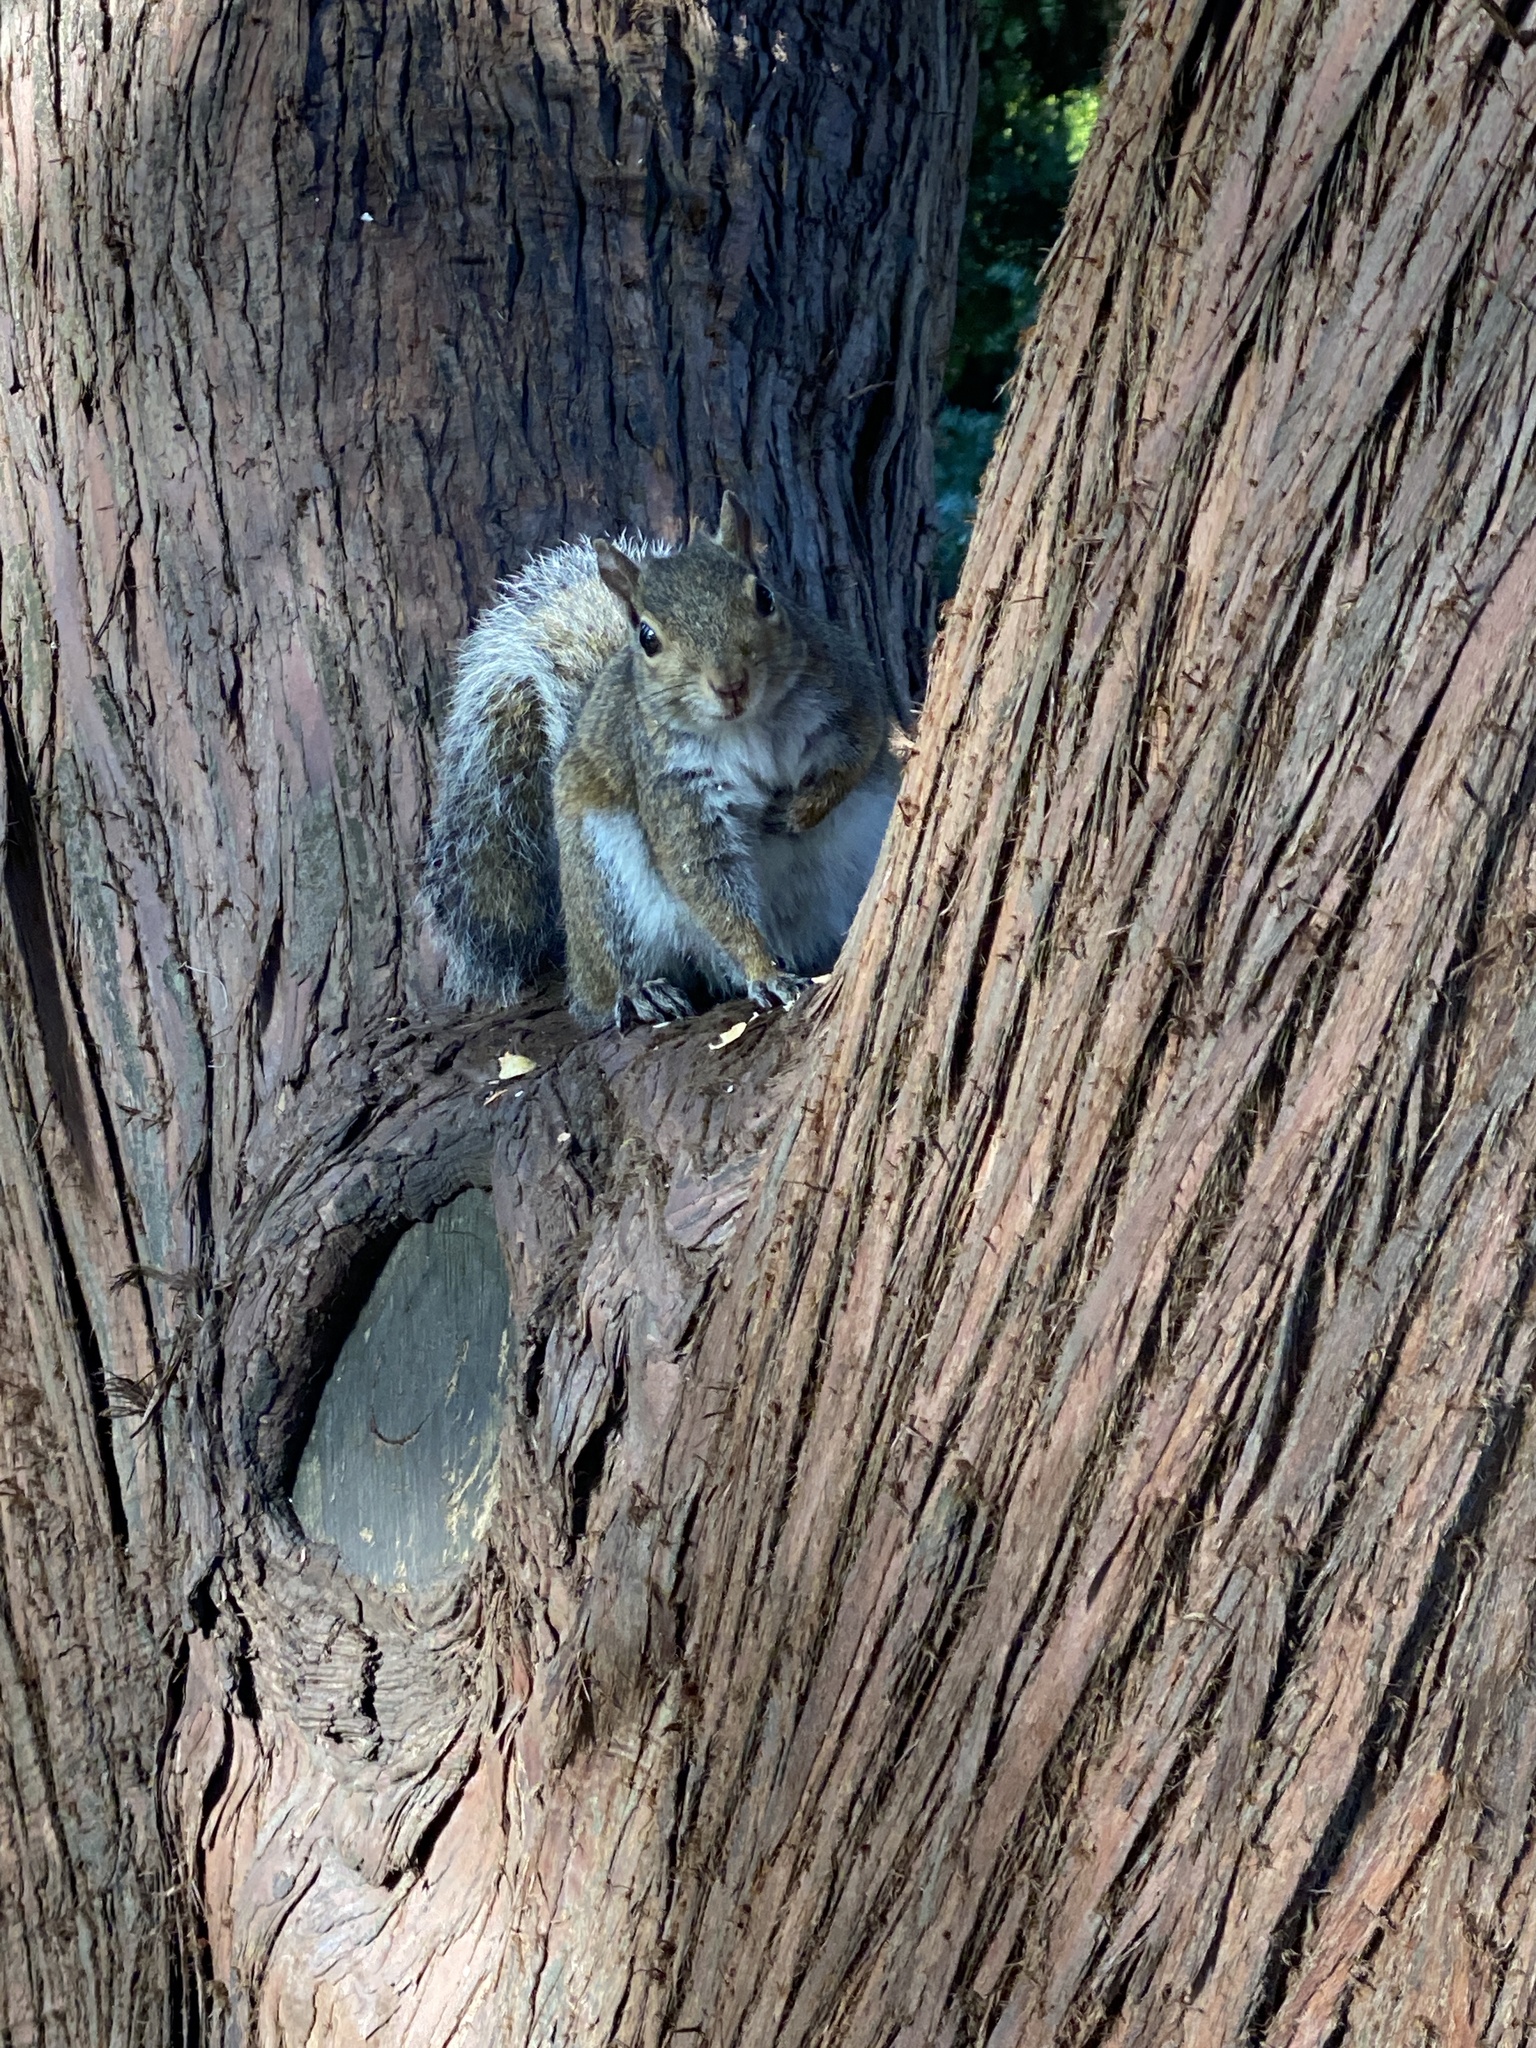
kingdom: Animalia
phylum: Chordata
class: Mammalia
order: Rodentia
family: Sciuridae
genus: Sciurus
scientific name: Sciurus carolinensis
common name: Eastern gray squirrel
